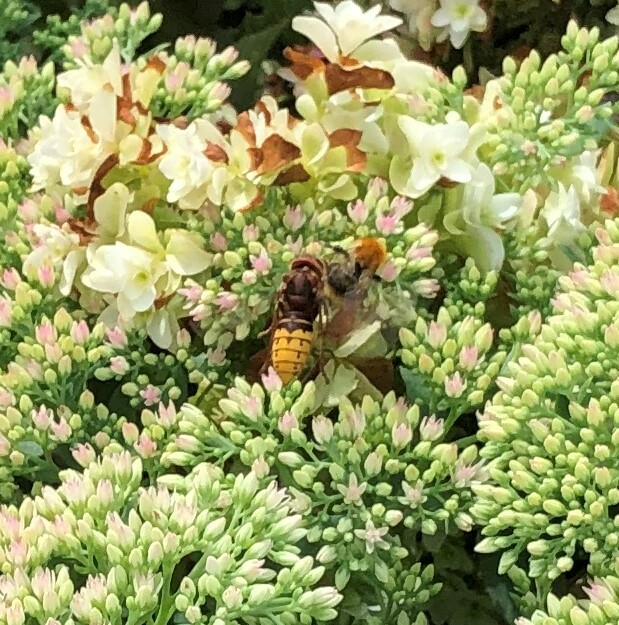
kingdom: Animalia
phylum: Arthropoda
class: Insecta
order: Hymenoptera
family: Vespidae
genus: Vespa
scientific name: Vespa crabro
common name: Hornet
